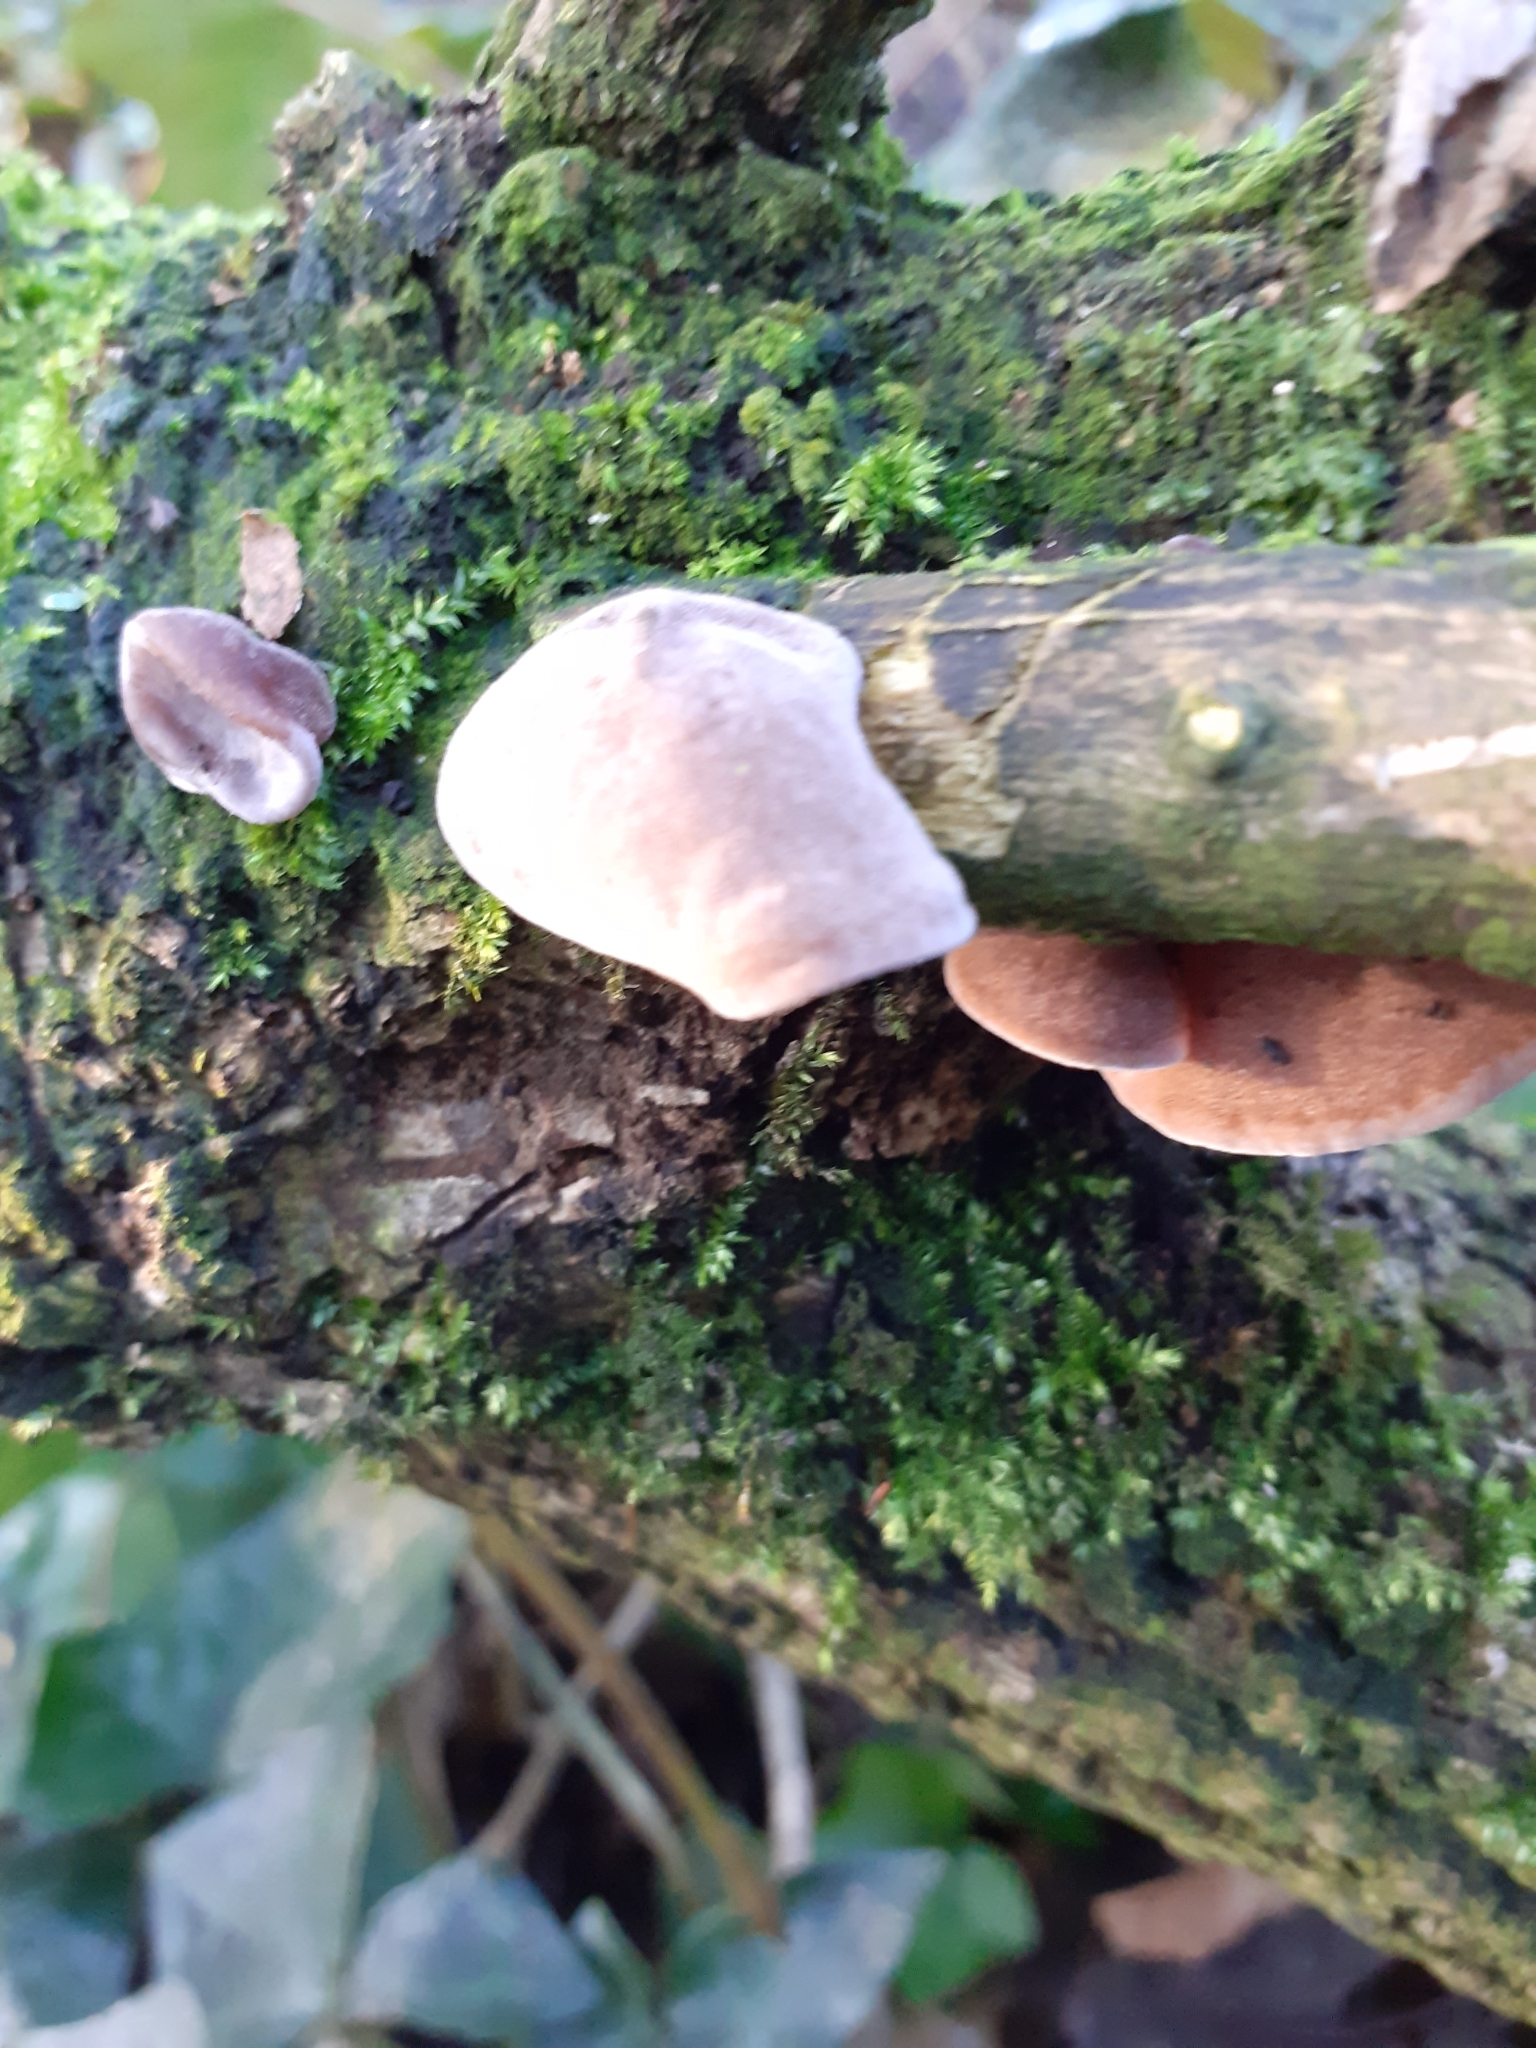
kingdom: Fungi
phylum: Basidiomycota
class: Agaricomycetes
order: Auriculariales
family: Auriculariaceae
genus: Auricularia
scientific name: Auricularia auricula-judae
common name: Jelly ear
